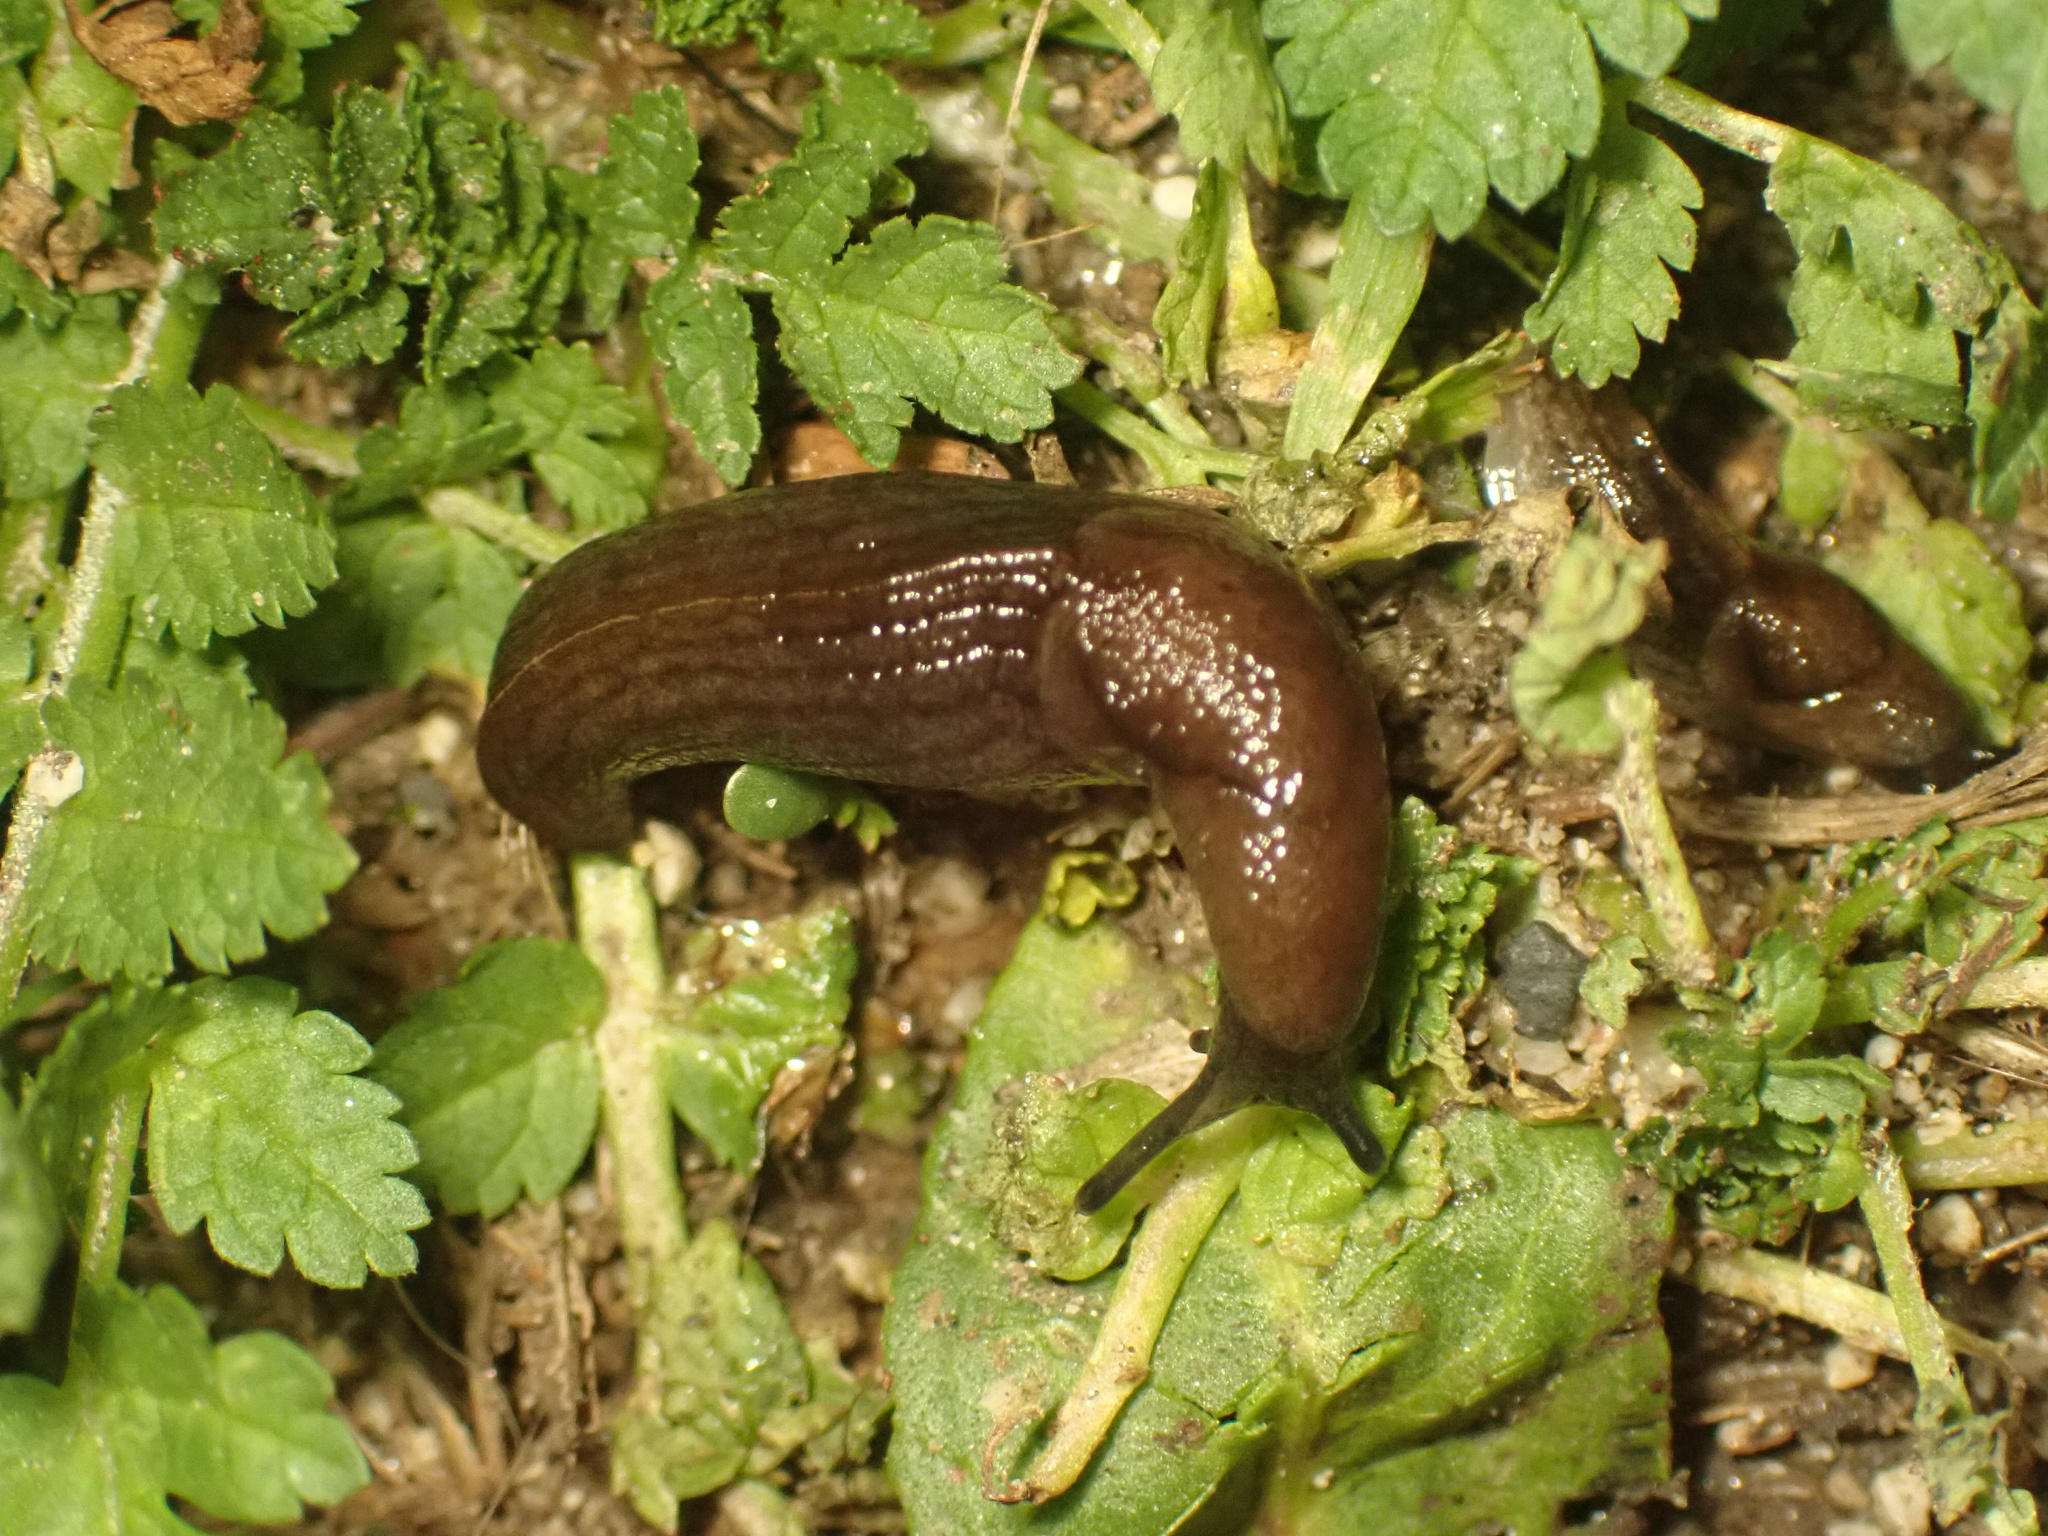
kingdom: Animalia
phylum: Mollusca
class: Gastropoda
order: Stylommatophora
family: Milacidae
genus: Milax
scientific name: Milax gagates
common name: Greenhouse slug
